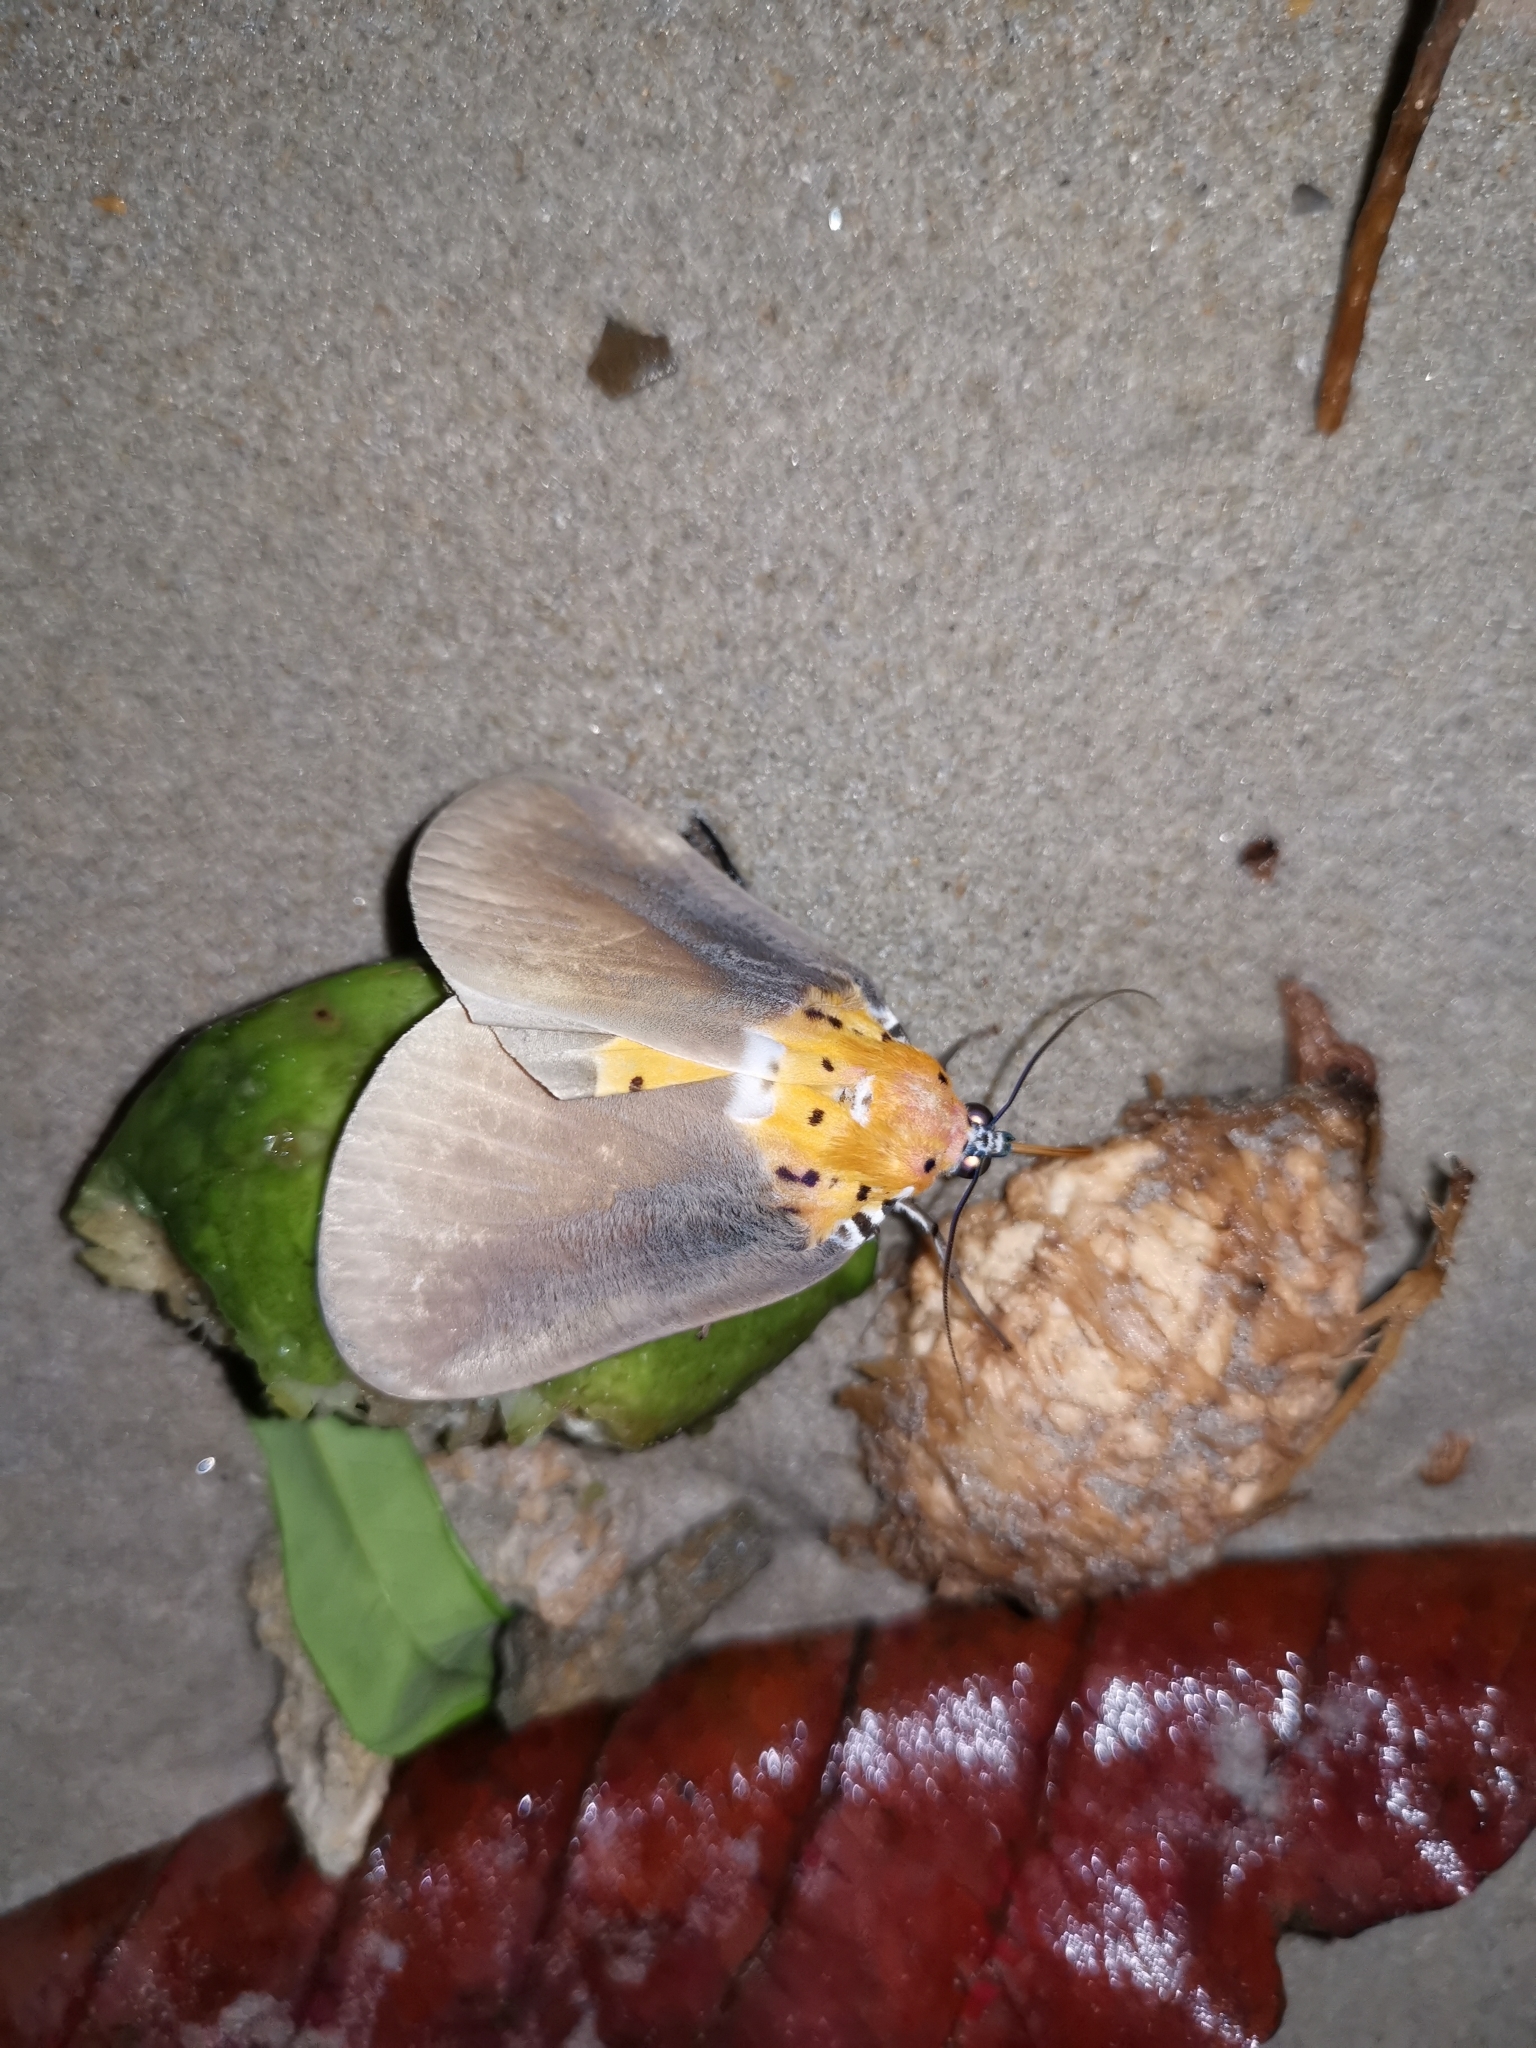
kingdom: Animalia
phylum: Arthropoda
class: Insecta
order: Lepidoptera
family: Erebidae
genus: Peridrome
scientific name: Peridrome orbicularis
